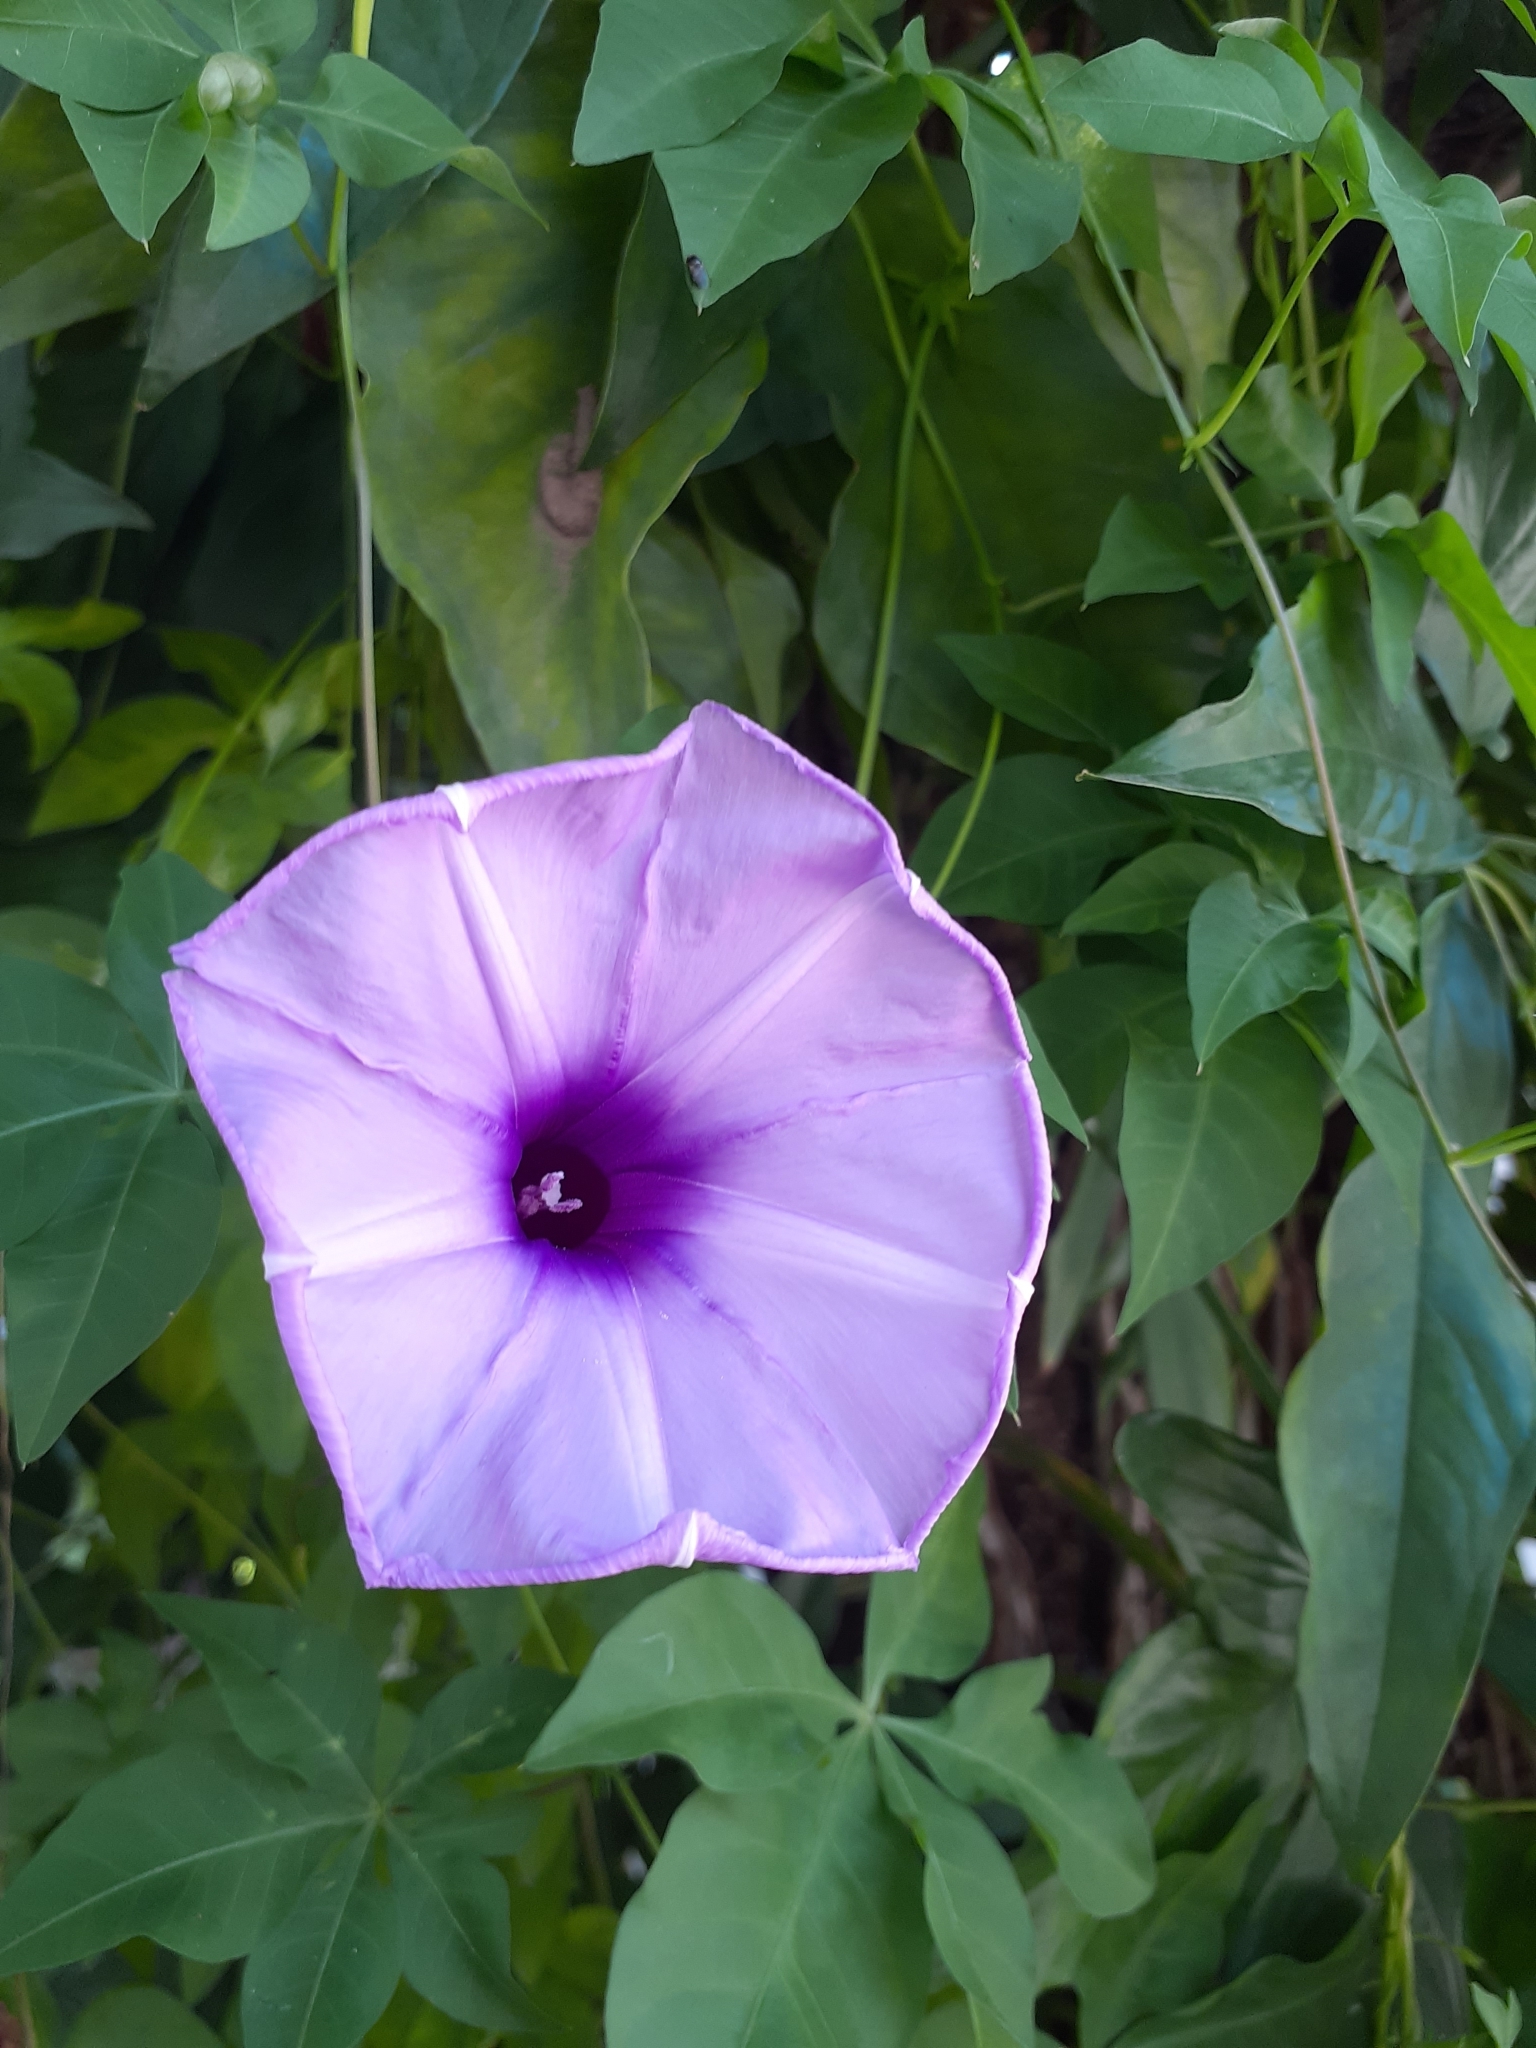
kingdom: Plantae
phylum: Tracheophyta
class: Magnoliopsida
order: Solanales
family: Convolvulaceae
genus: Ipomoea
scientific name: Ipomoea cairica
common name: Mile a minute vine
